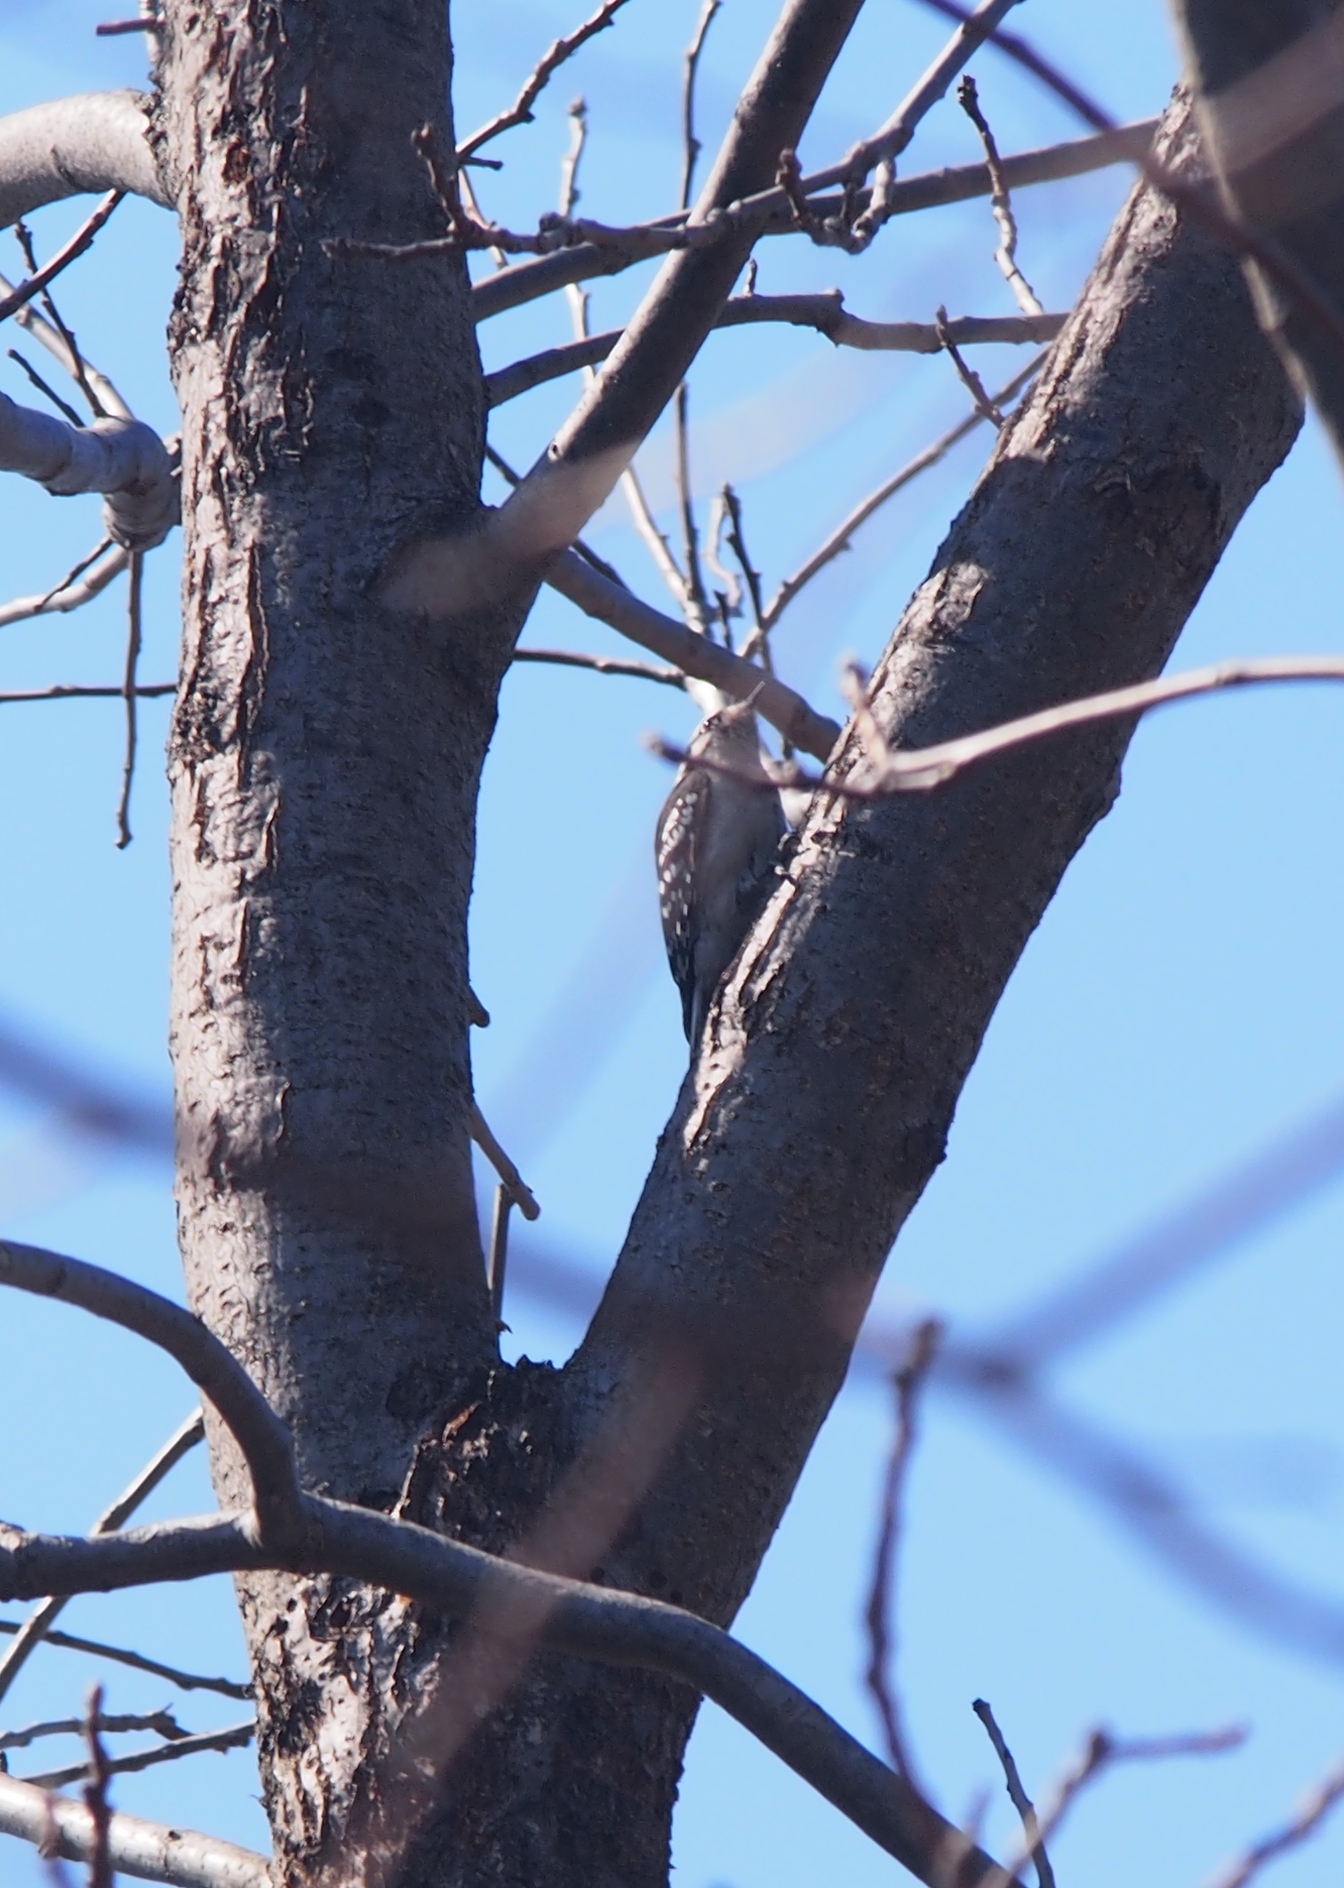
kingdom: Animalia
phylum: Chordata
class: Aves
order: Piciformes
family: Picidae
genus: Dryobates
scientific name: Dryobates pubescens
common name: Downy woodpecker
